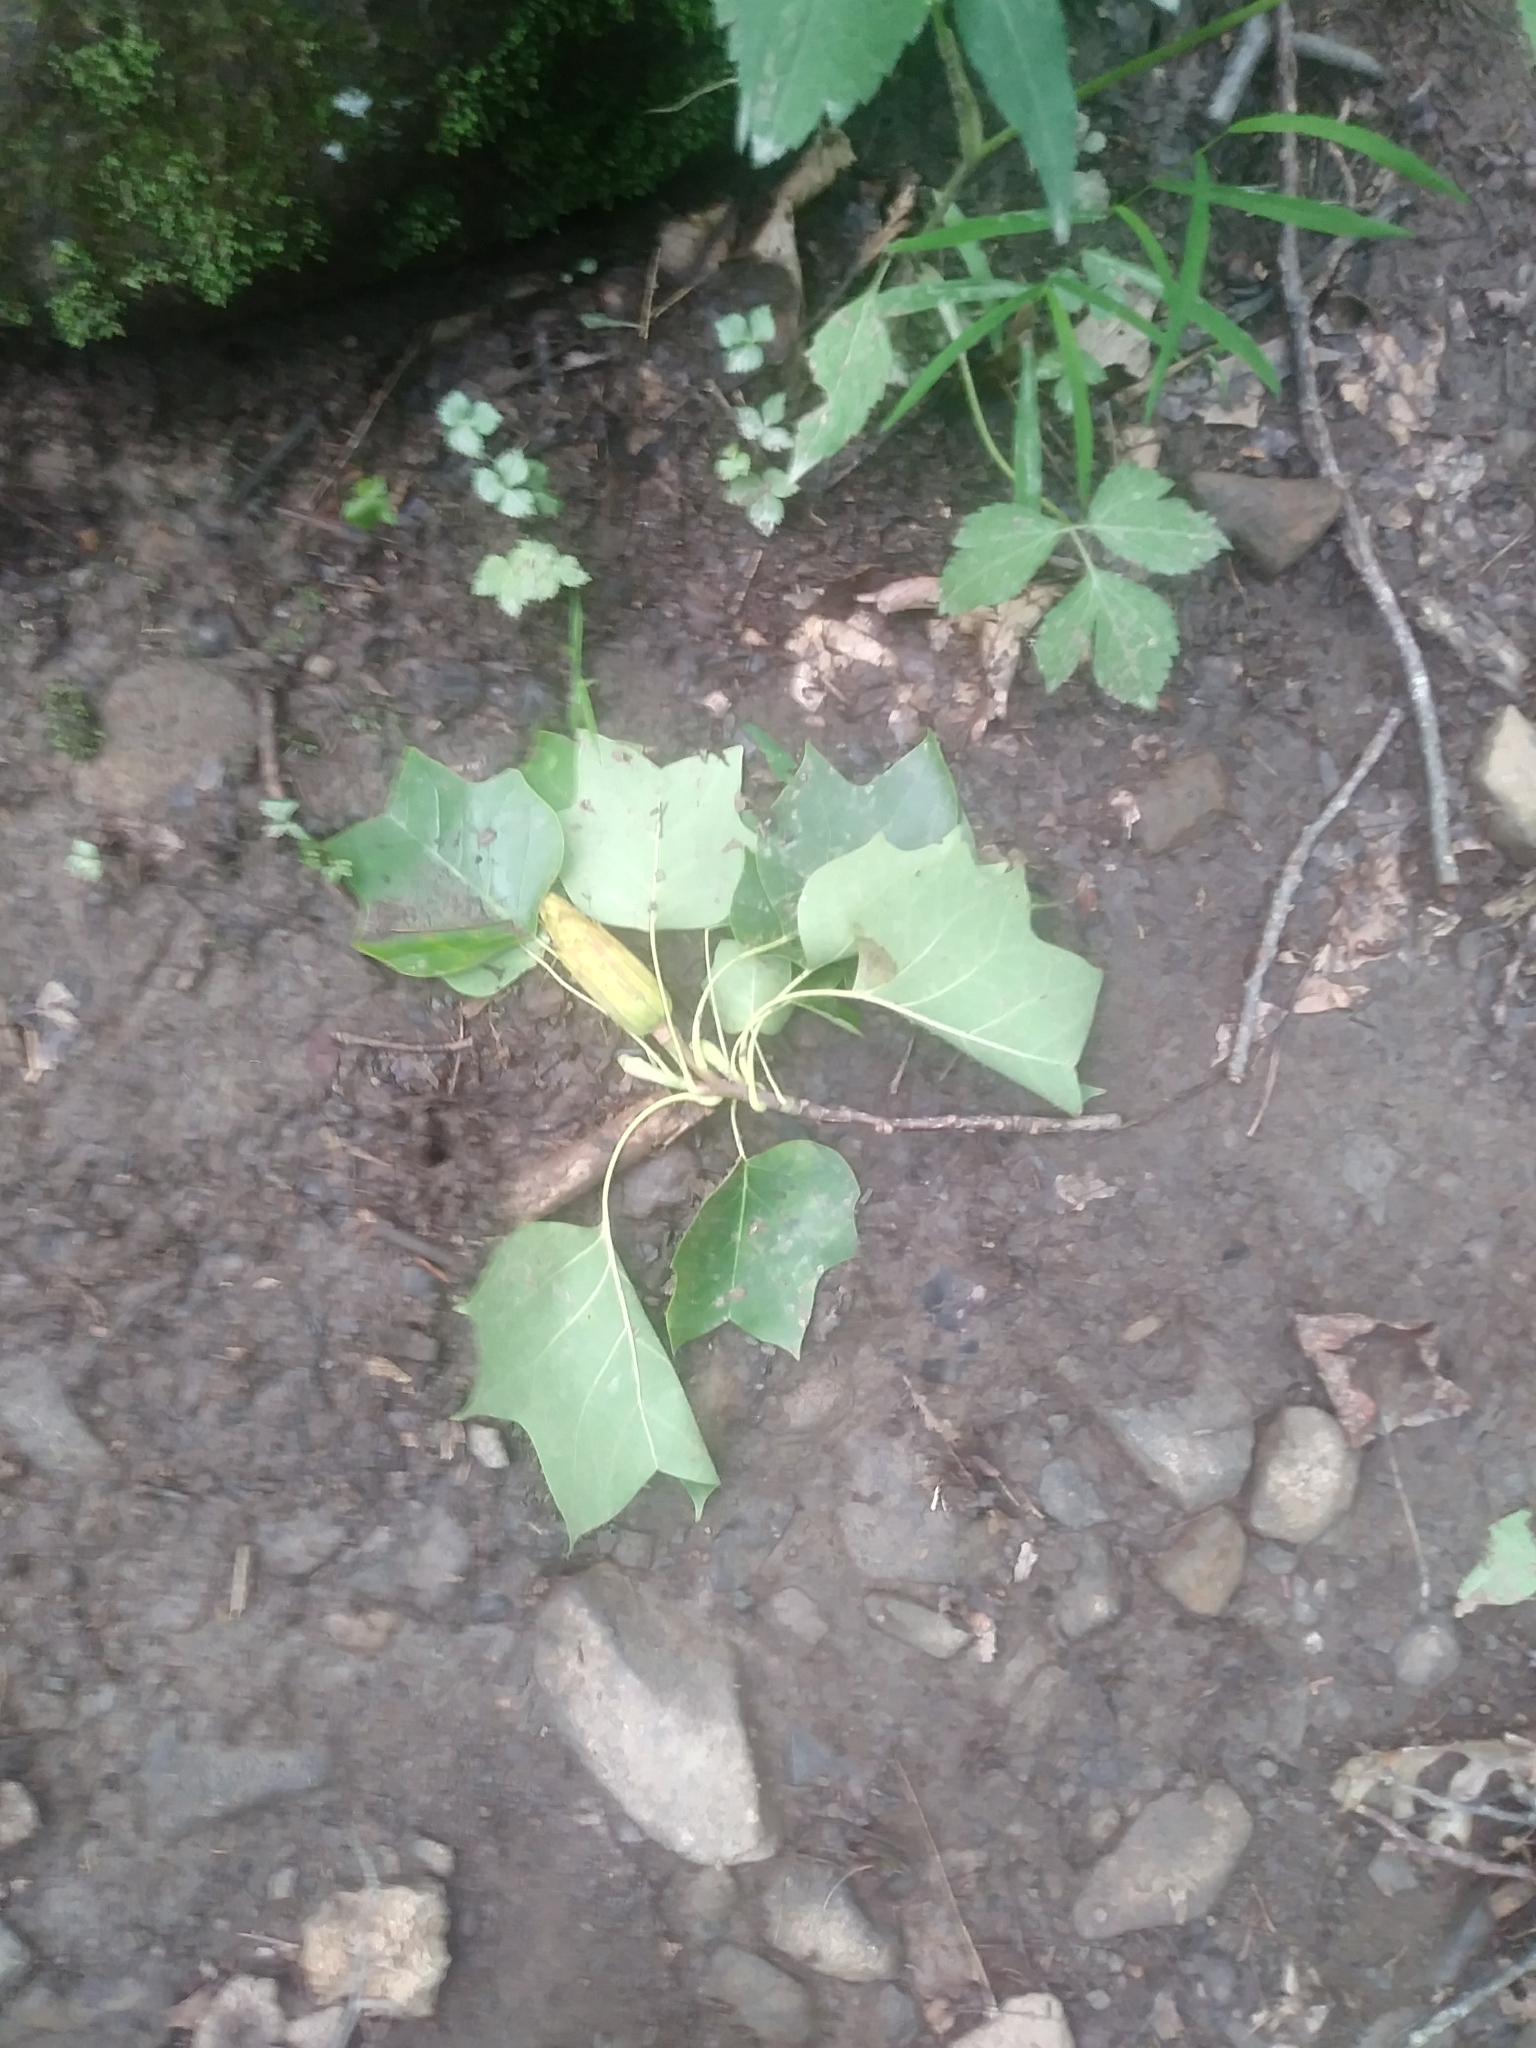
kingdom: Plantae
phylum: Tracheophyta
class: Magnoliopsida
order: Magnoliales
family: Magnoliaceae
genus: Liriodendron
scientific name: Liriodendron tulipifera
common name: Tulip tree
